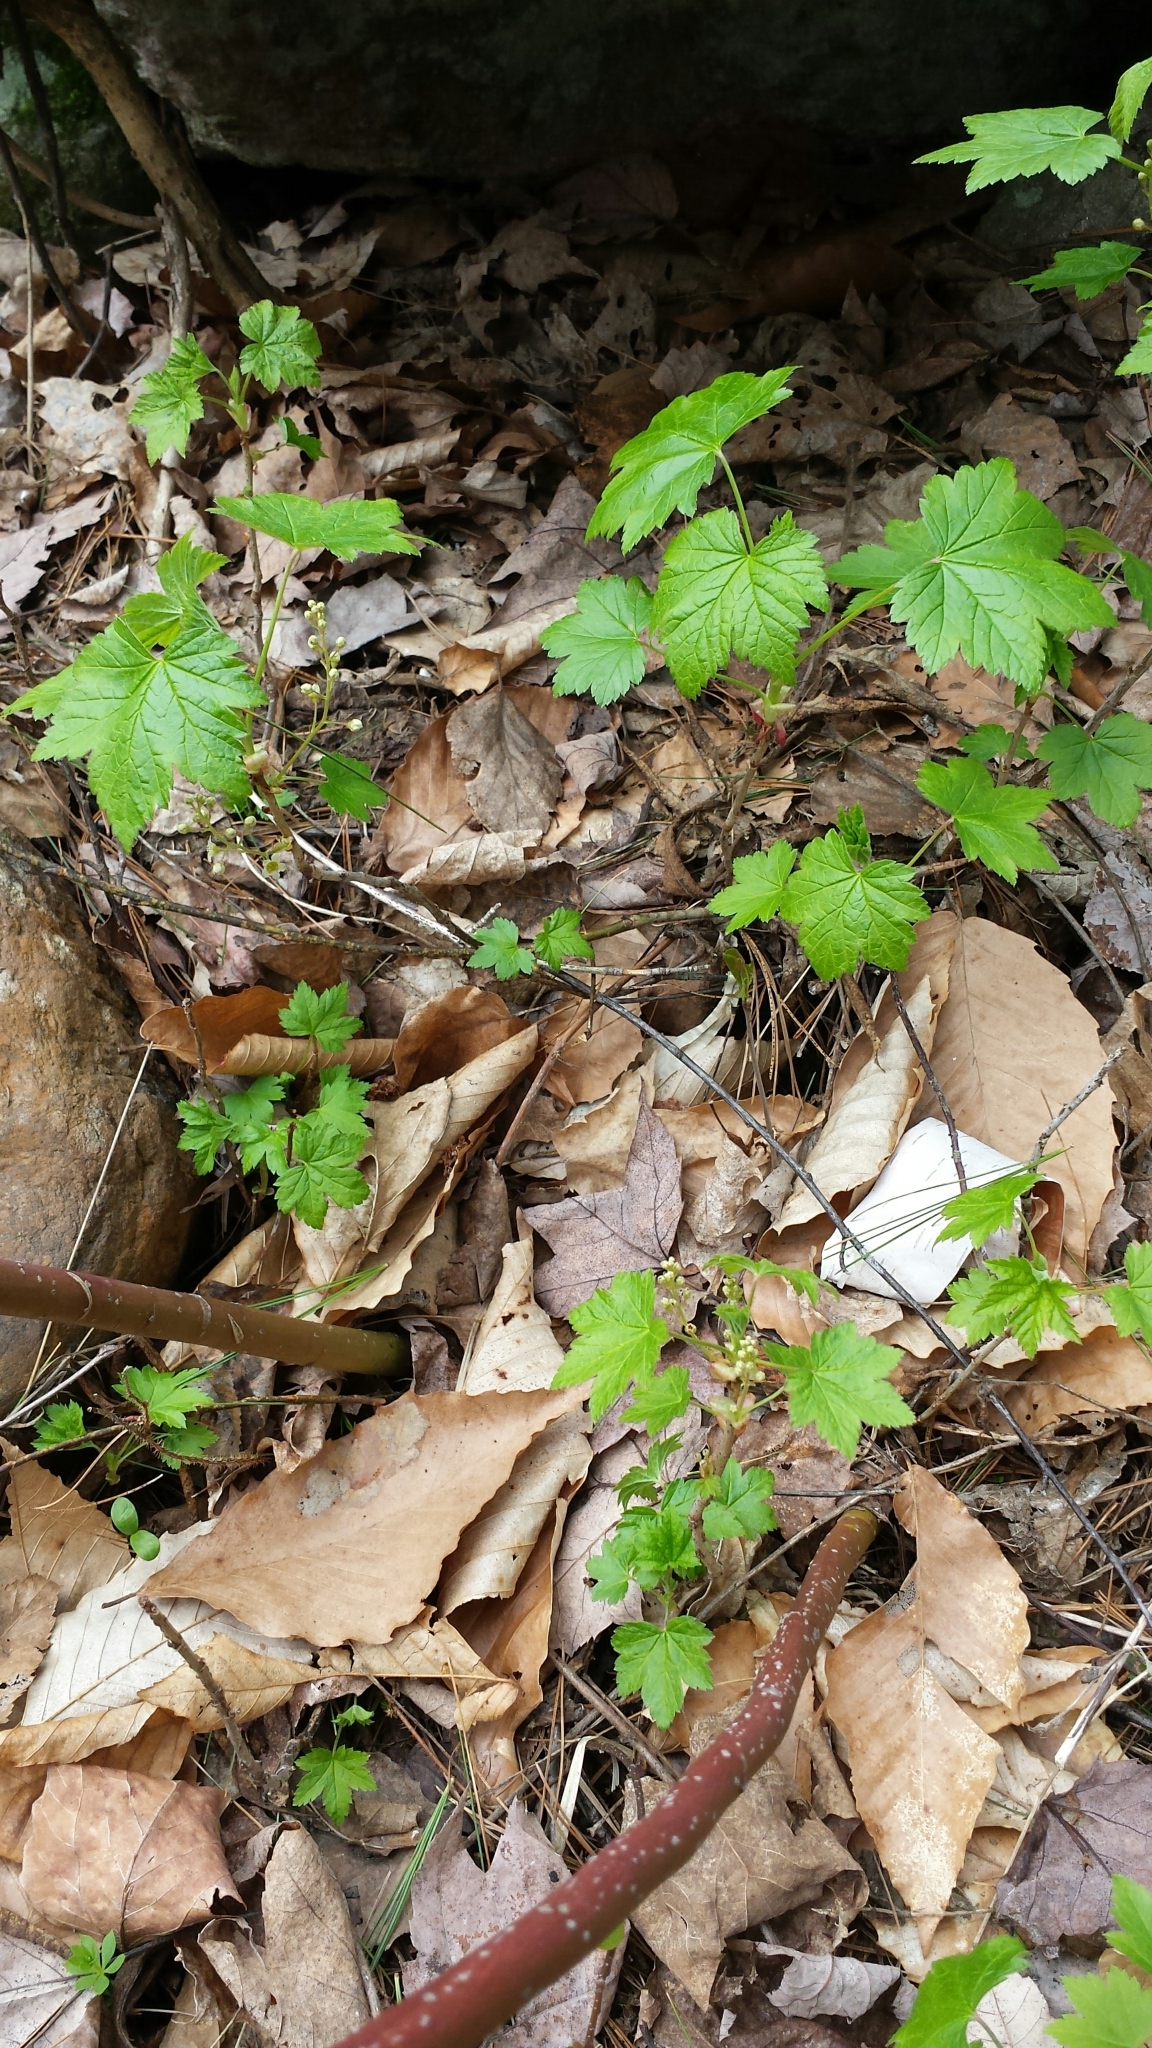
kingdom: Plantae
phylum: Tracheophyta
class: Magnoliopsida
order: Saxifragales
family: Grossulariaceae
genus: Ribes
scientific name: Ribes glandulosum
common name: Skunk currant
